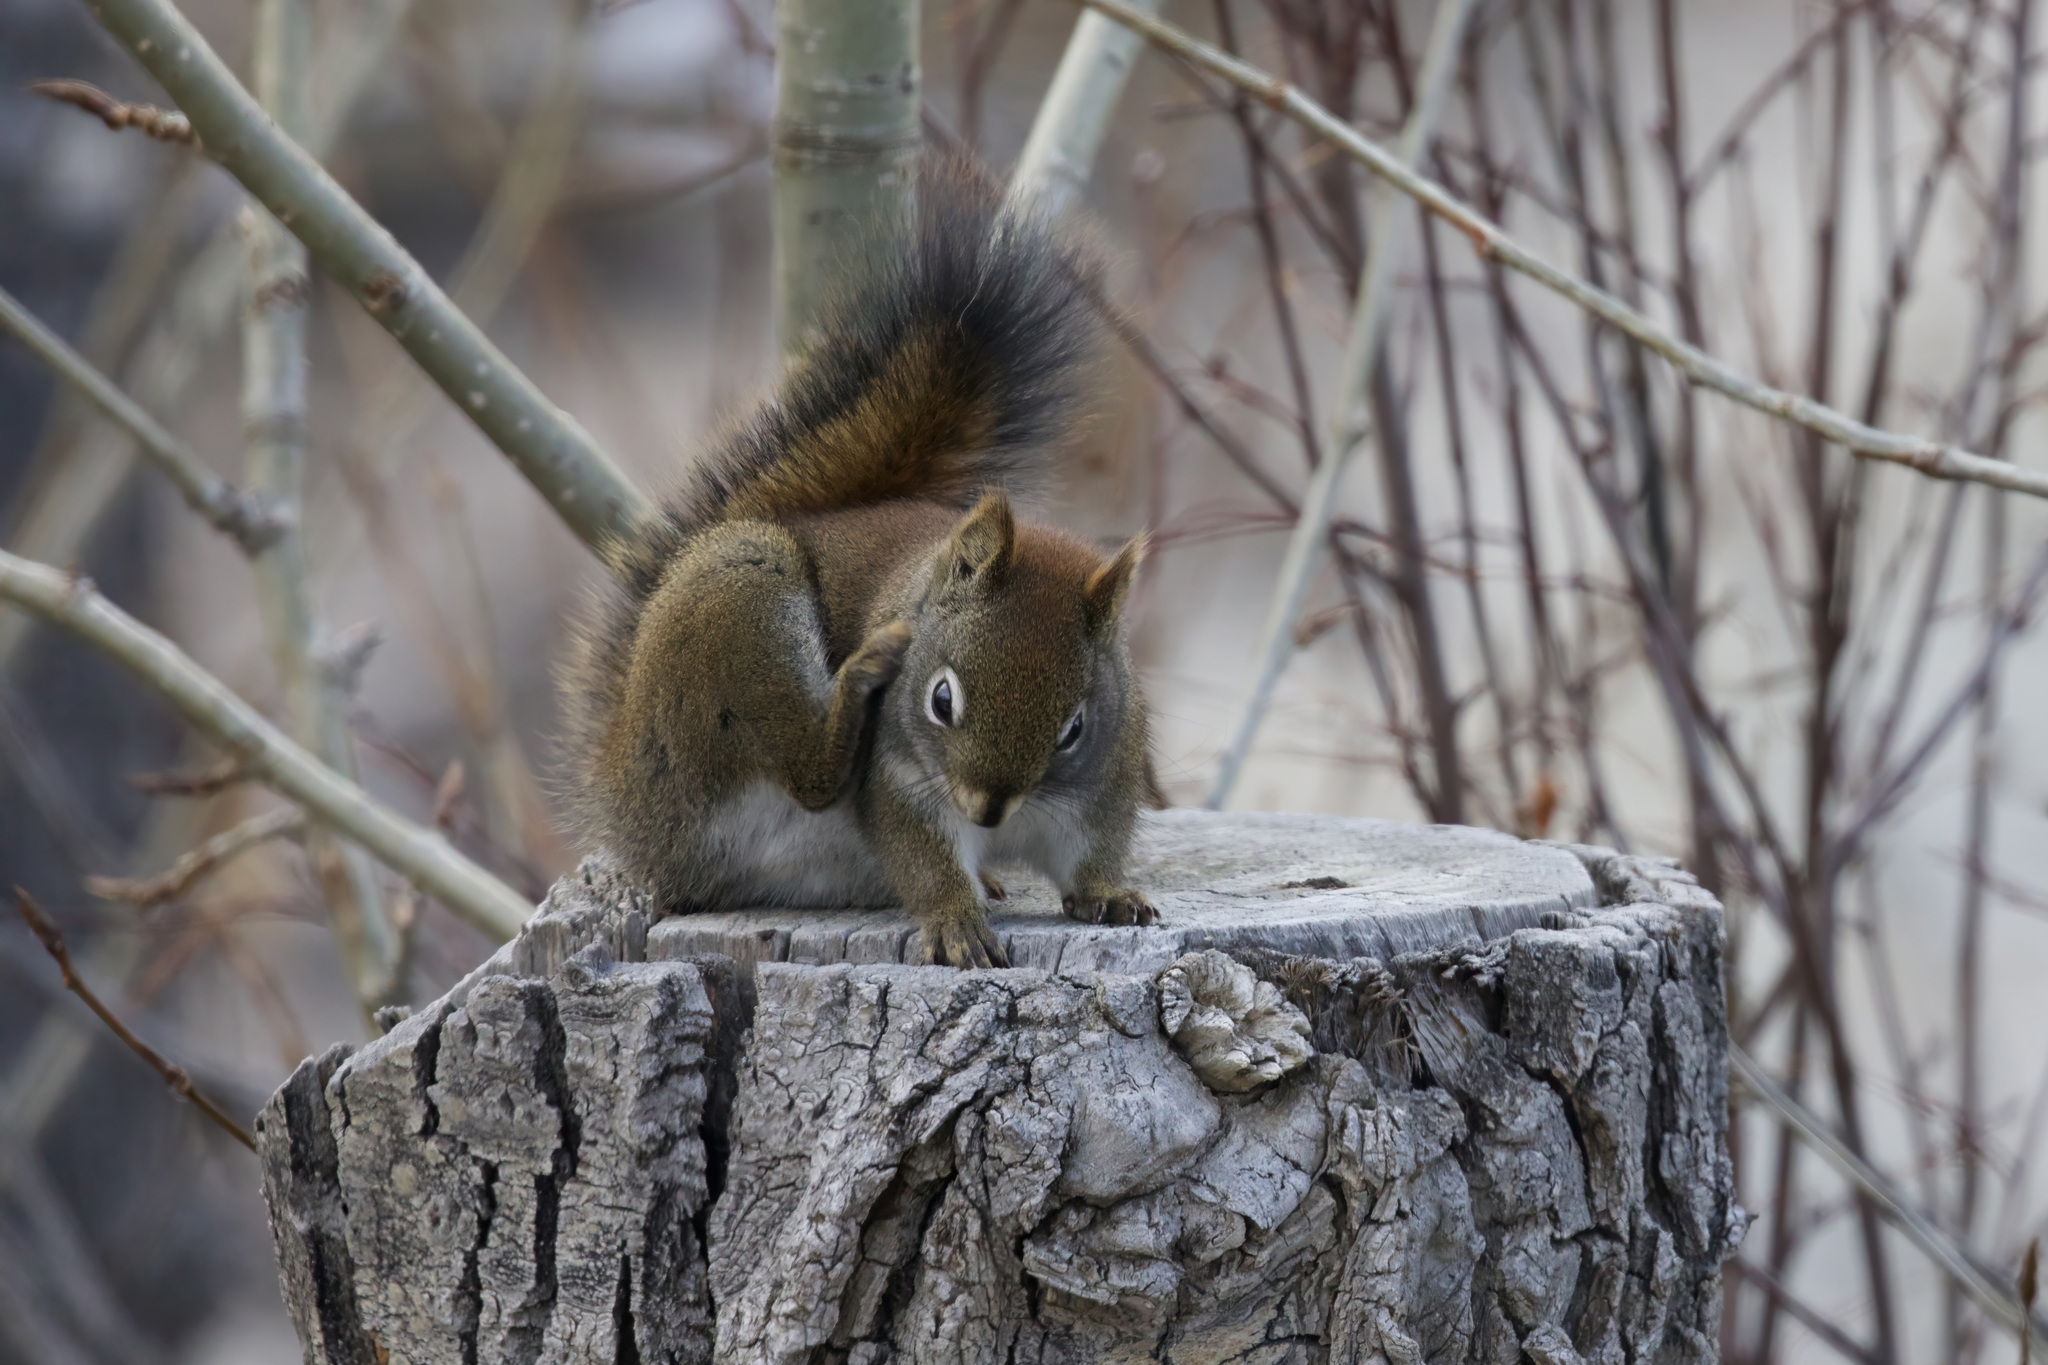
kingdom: Animalia
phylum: Chordata
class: Mammalia
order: Rodentia
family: Sciuridae
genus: Tamiasciurus
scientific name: Tamiasciurus hudsonicus
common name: Red squirrel
